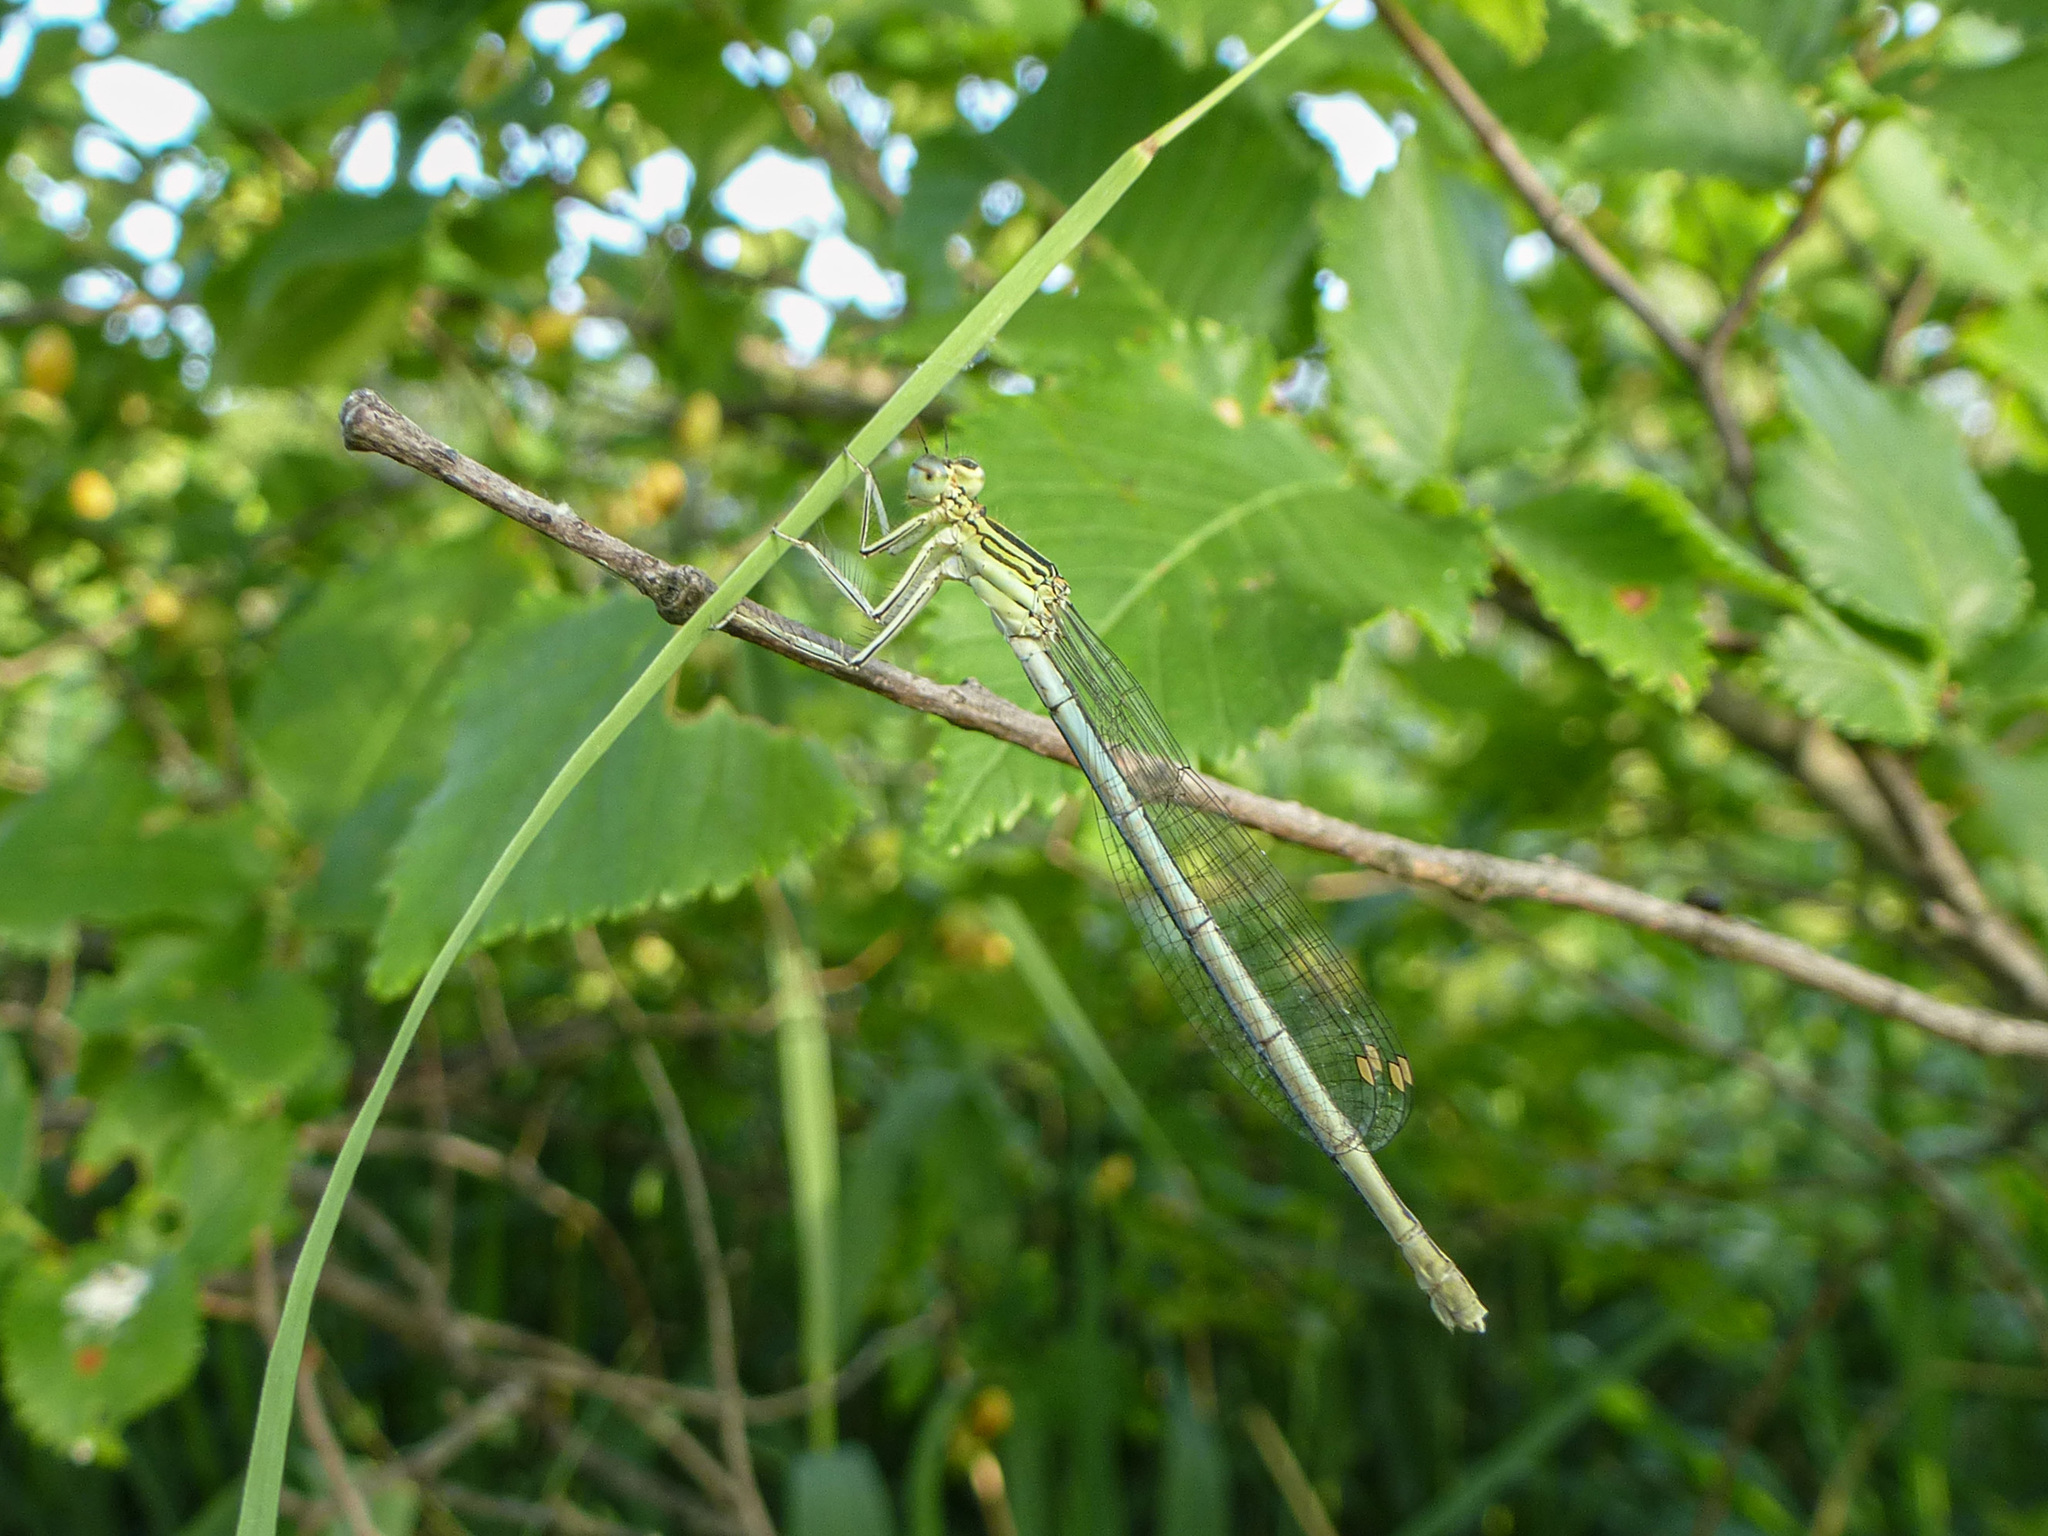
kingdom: Animalia
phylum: Arthropoda
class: Insecta
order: Odonata
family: Platycnemididae
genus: Platycnemis
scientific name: Platycnemis pennipes
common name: White-legged damselfly
